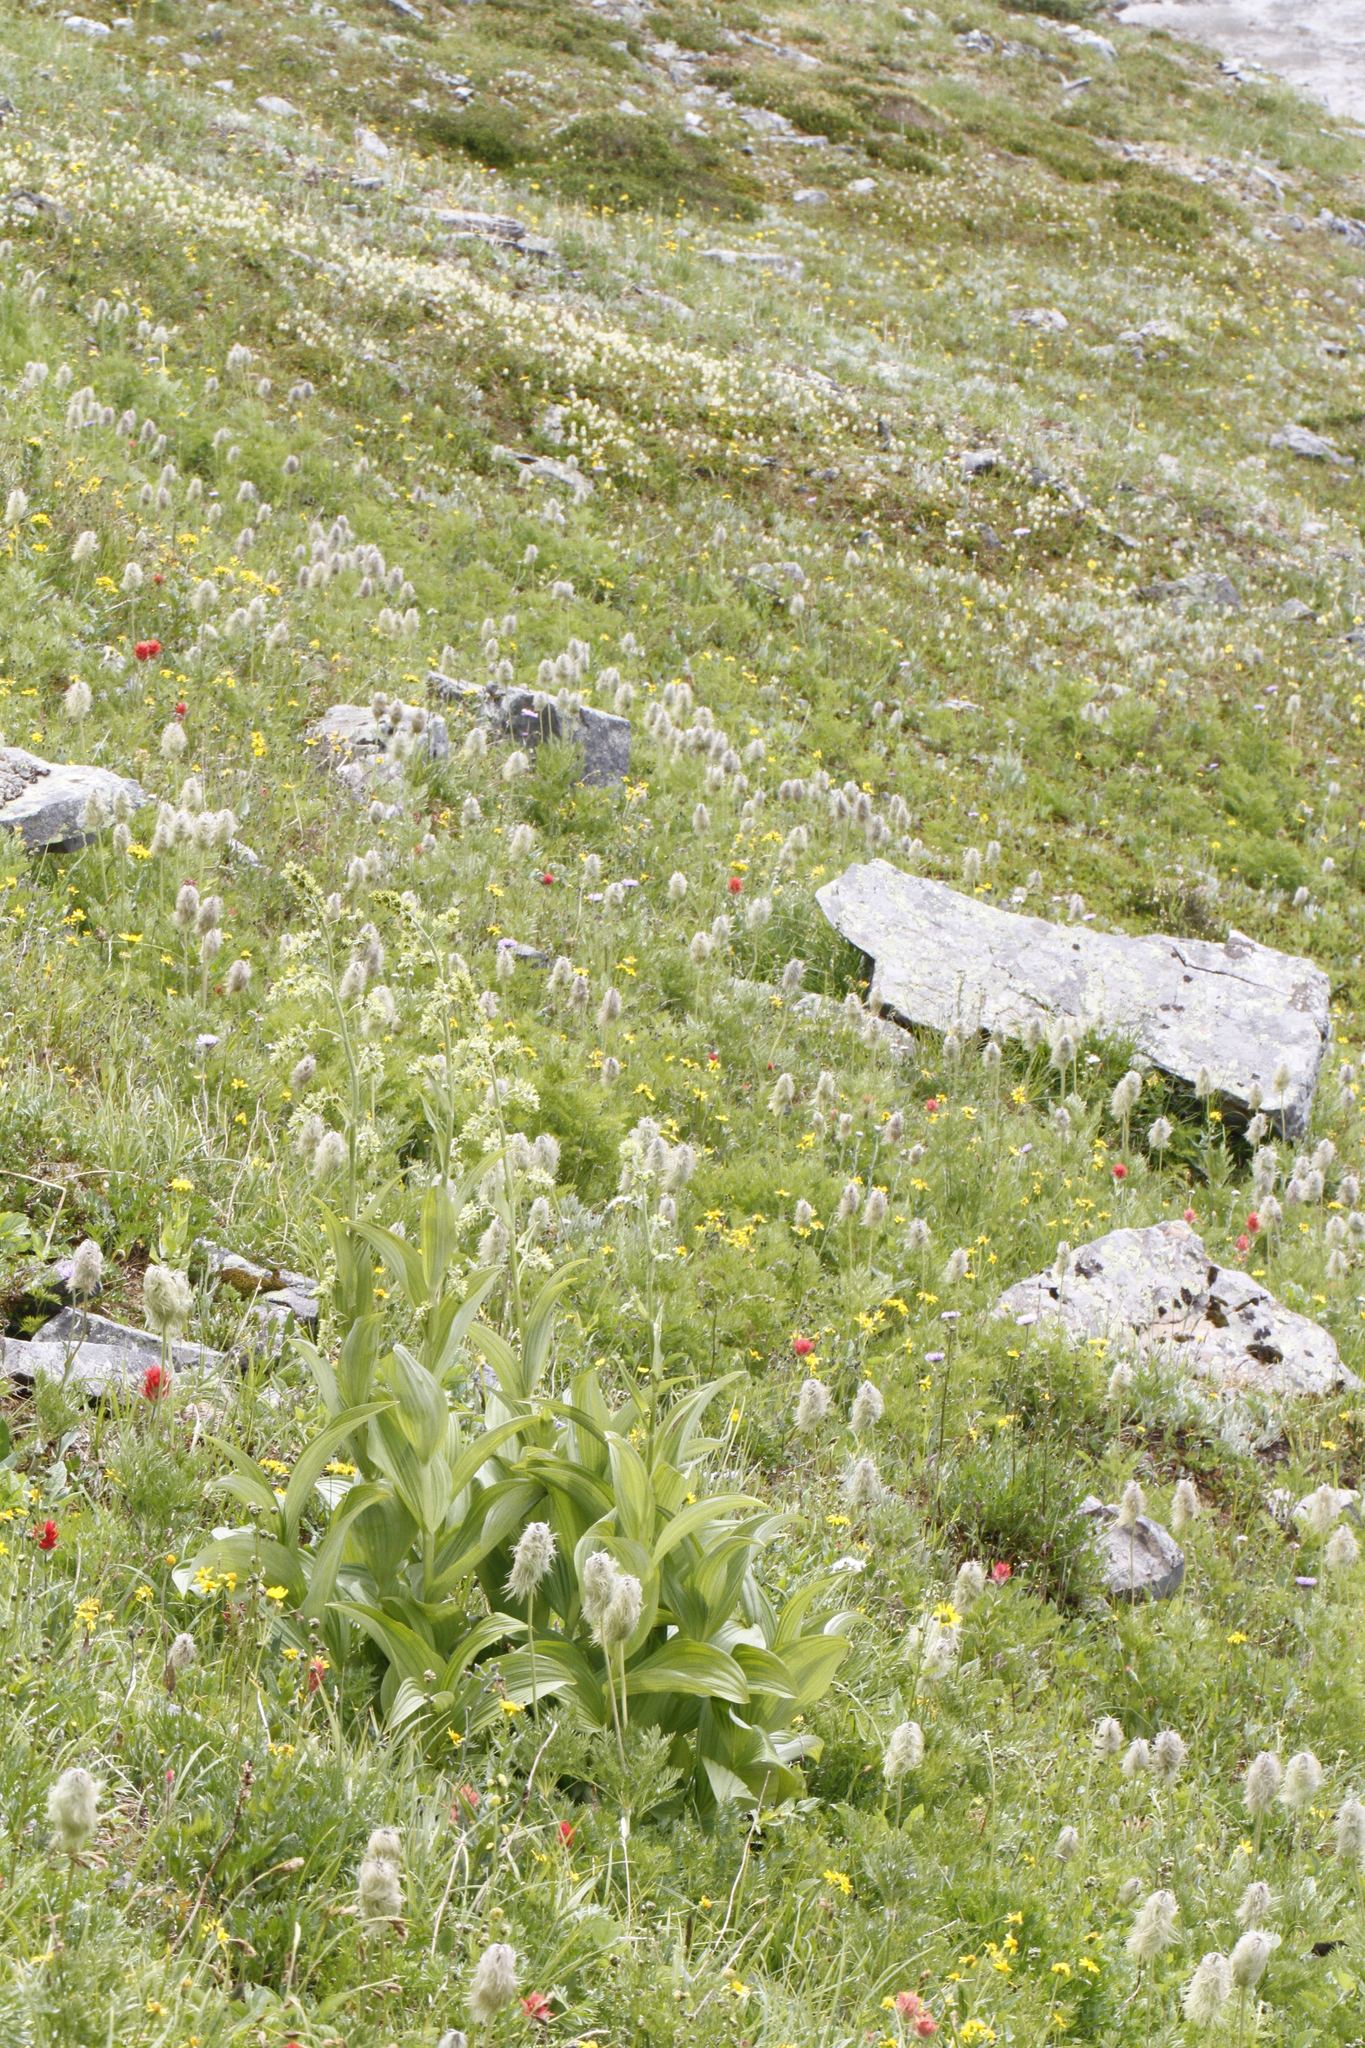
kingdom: Plantae
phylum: Tracheophyta
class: Liliopsida
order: Liliales
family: Melanthiaceae
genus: Veratrum
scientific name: Veratrum viride
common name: American false hellebore
